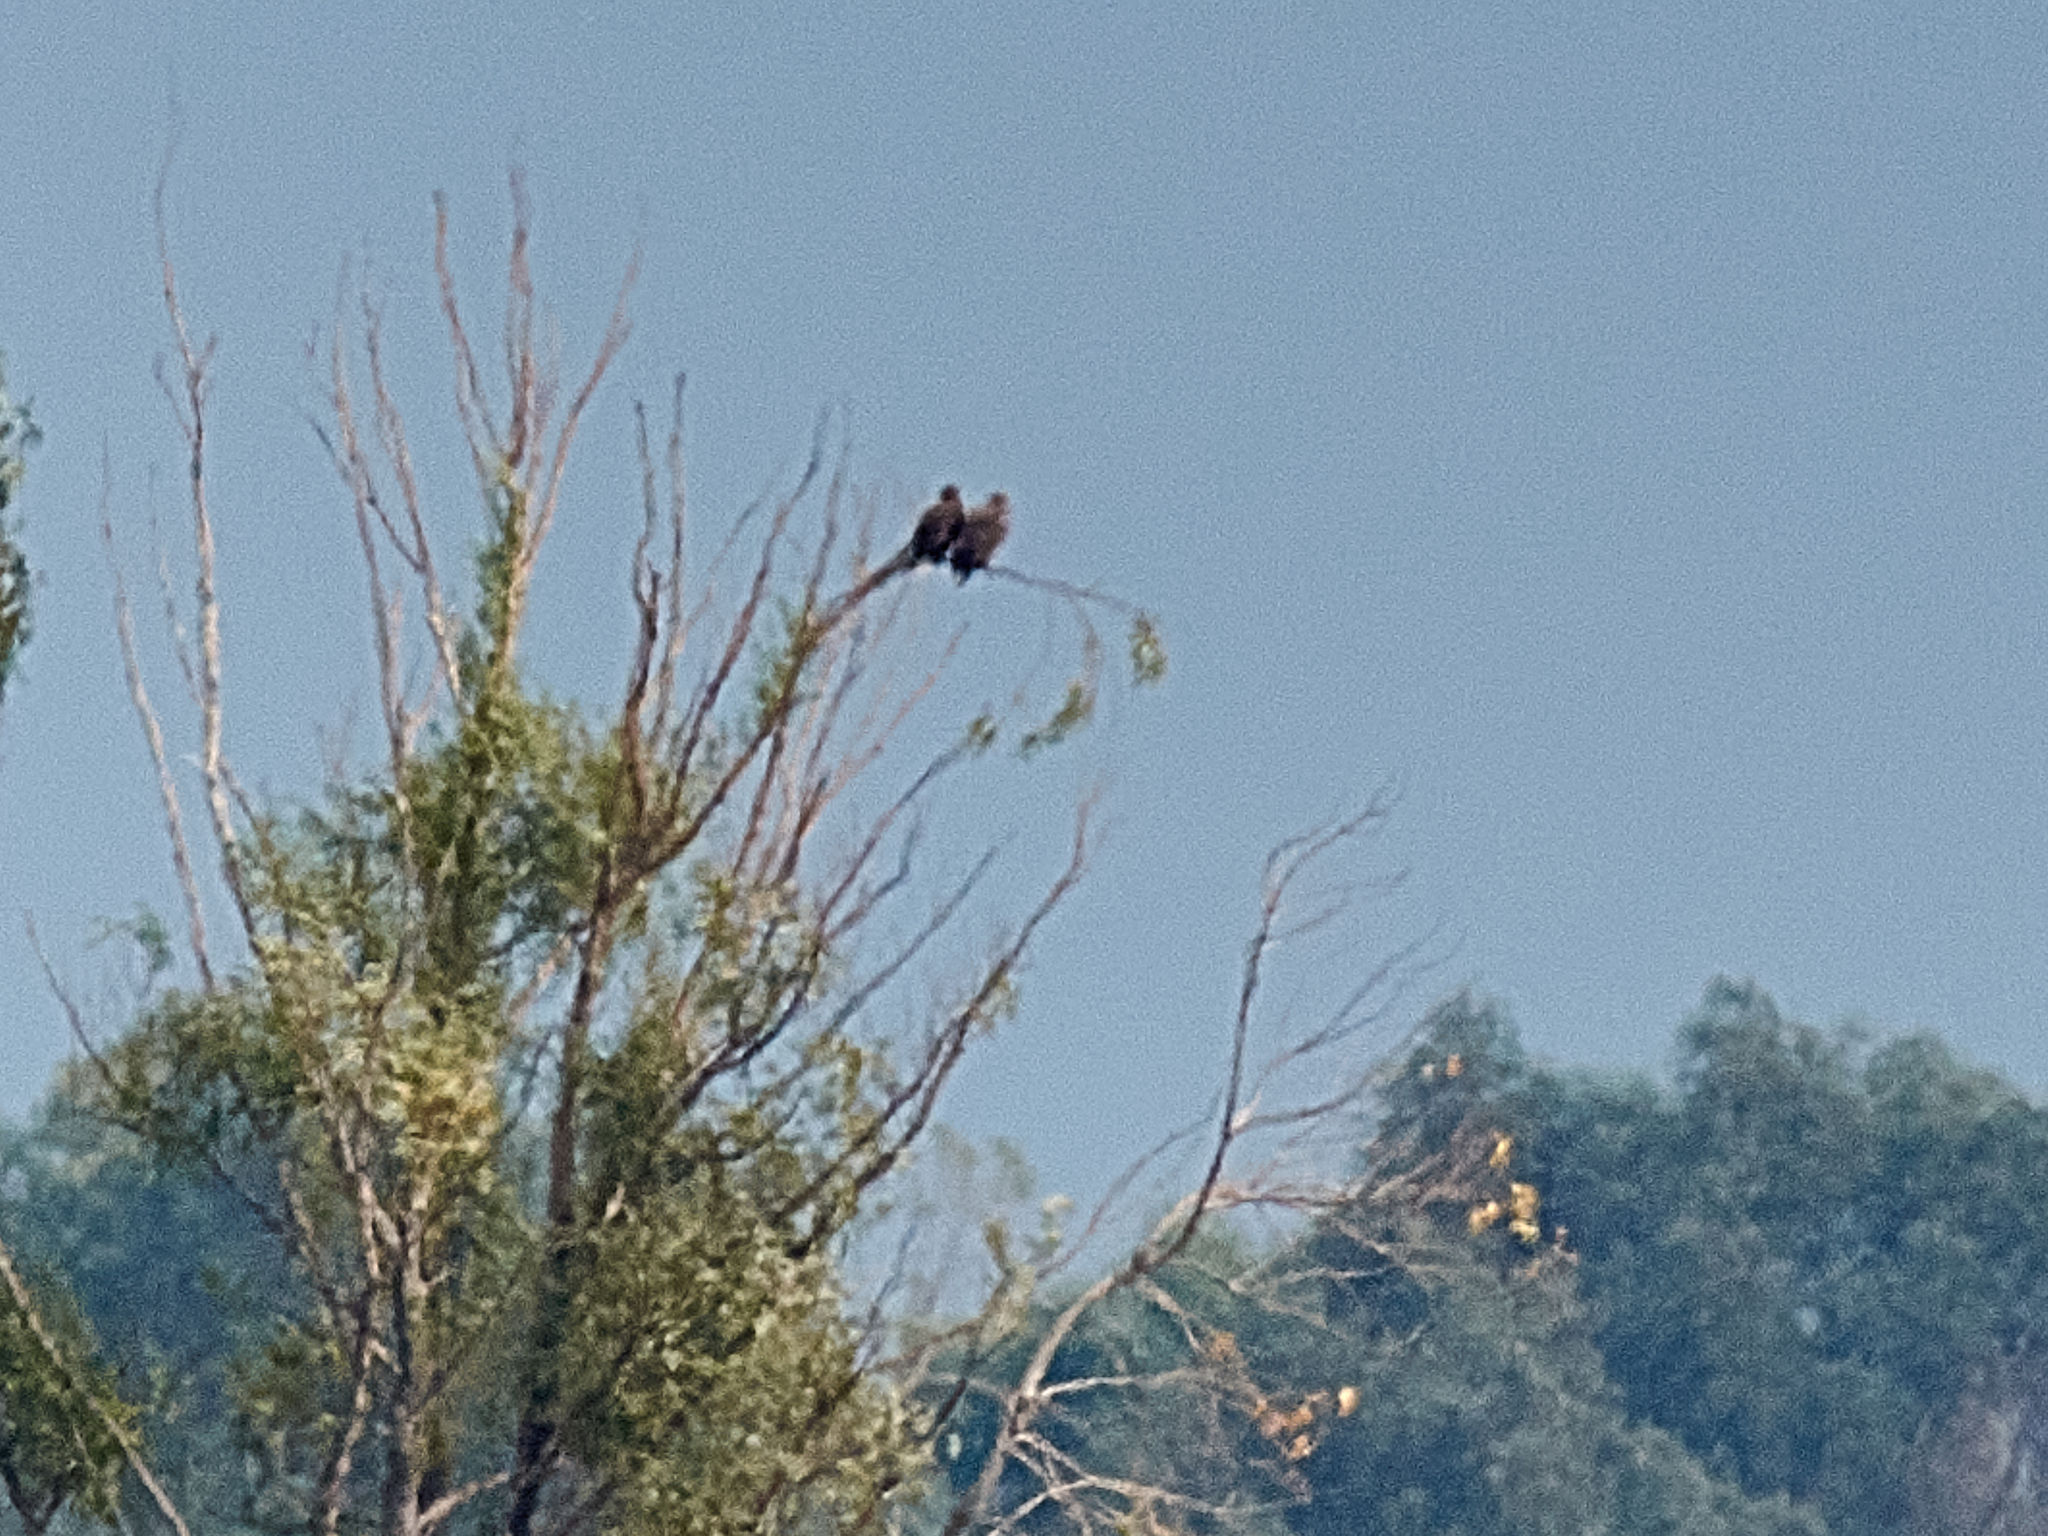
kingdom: Animalia
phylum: Chordata
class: Aves
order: Accipitriformes
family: Accipitridae
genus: Haliaeetus
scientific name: Haliaeetus albicilla
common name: White-tailed eagle
